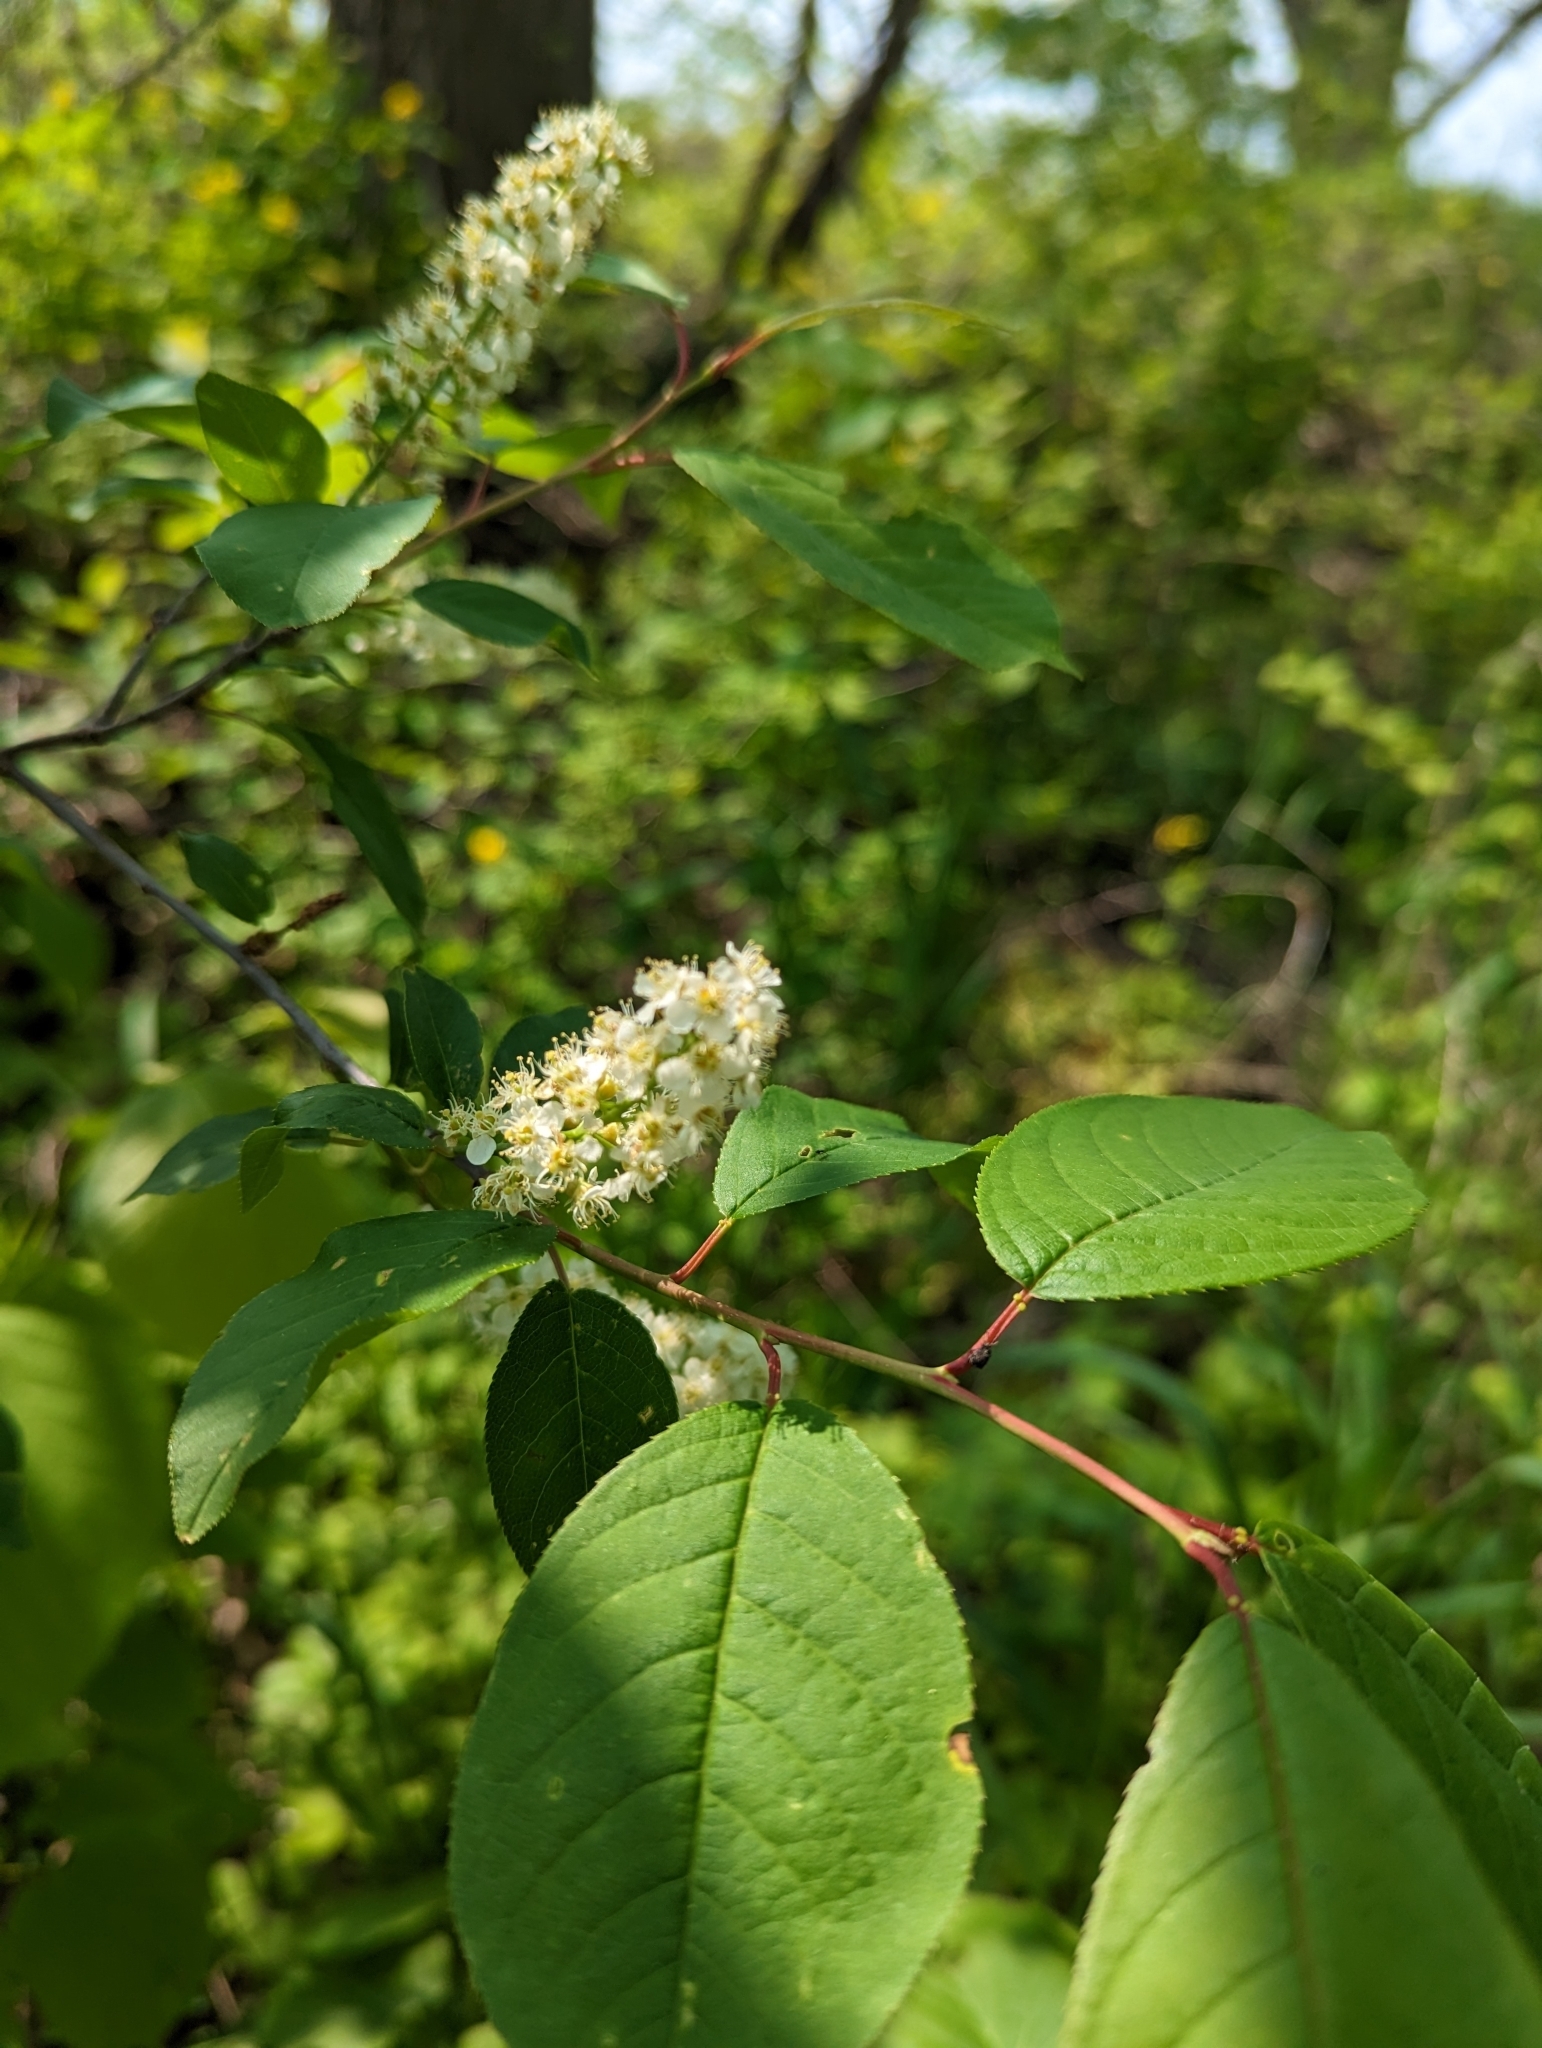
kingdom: Plantae
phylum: Tracheophyta
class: Magnoliopsida
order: Rosales
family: Rosaceae
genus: Prunus
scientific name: Prunus virginiana
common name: Chokecherry
